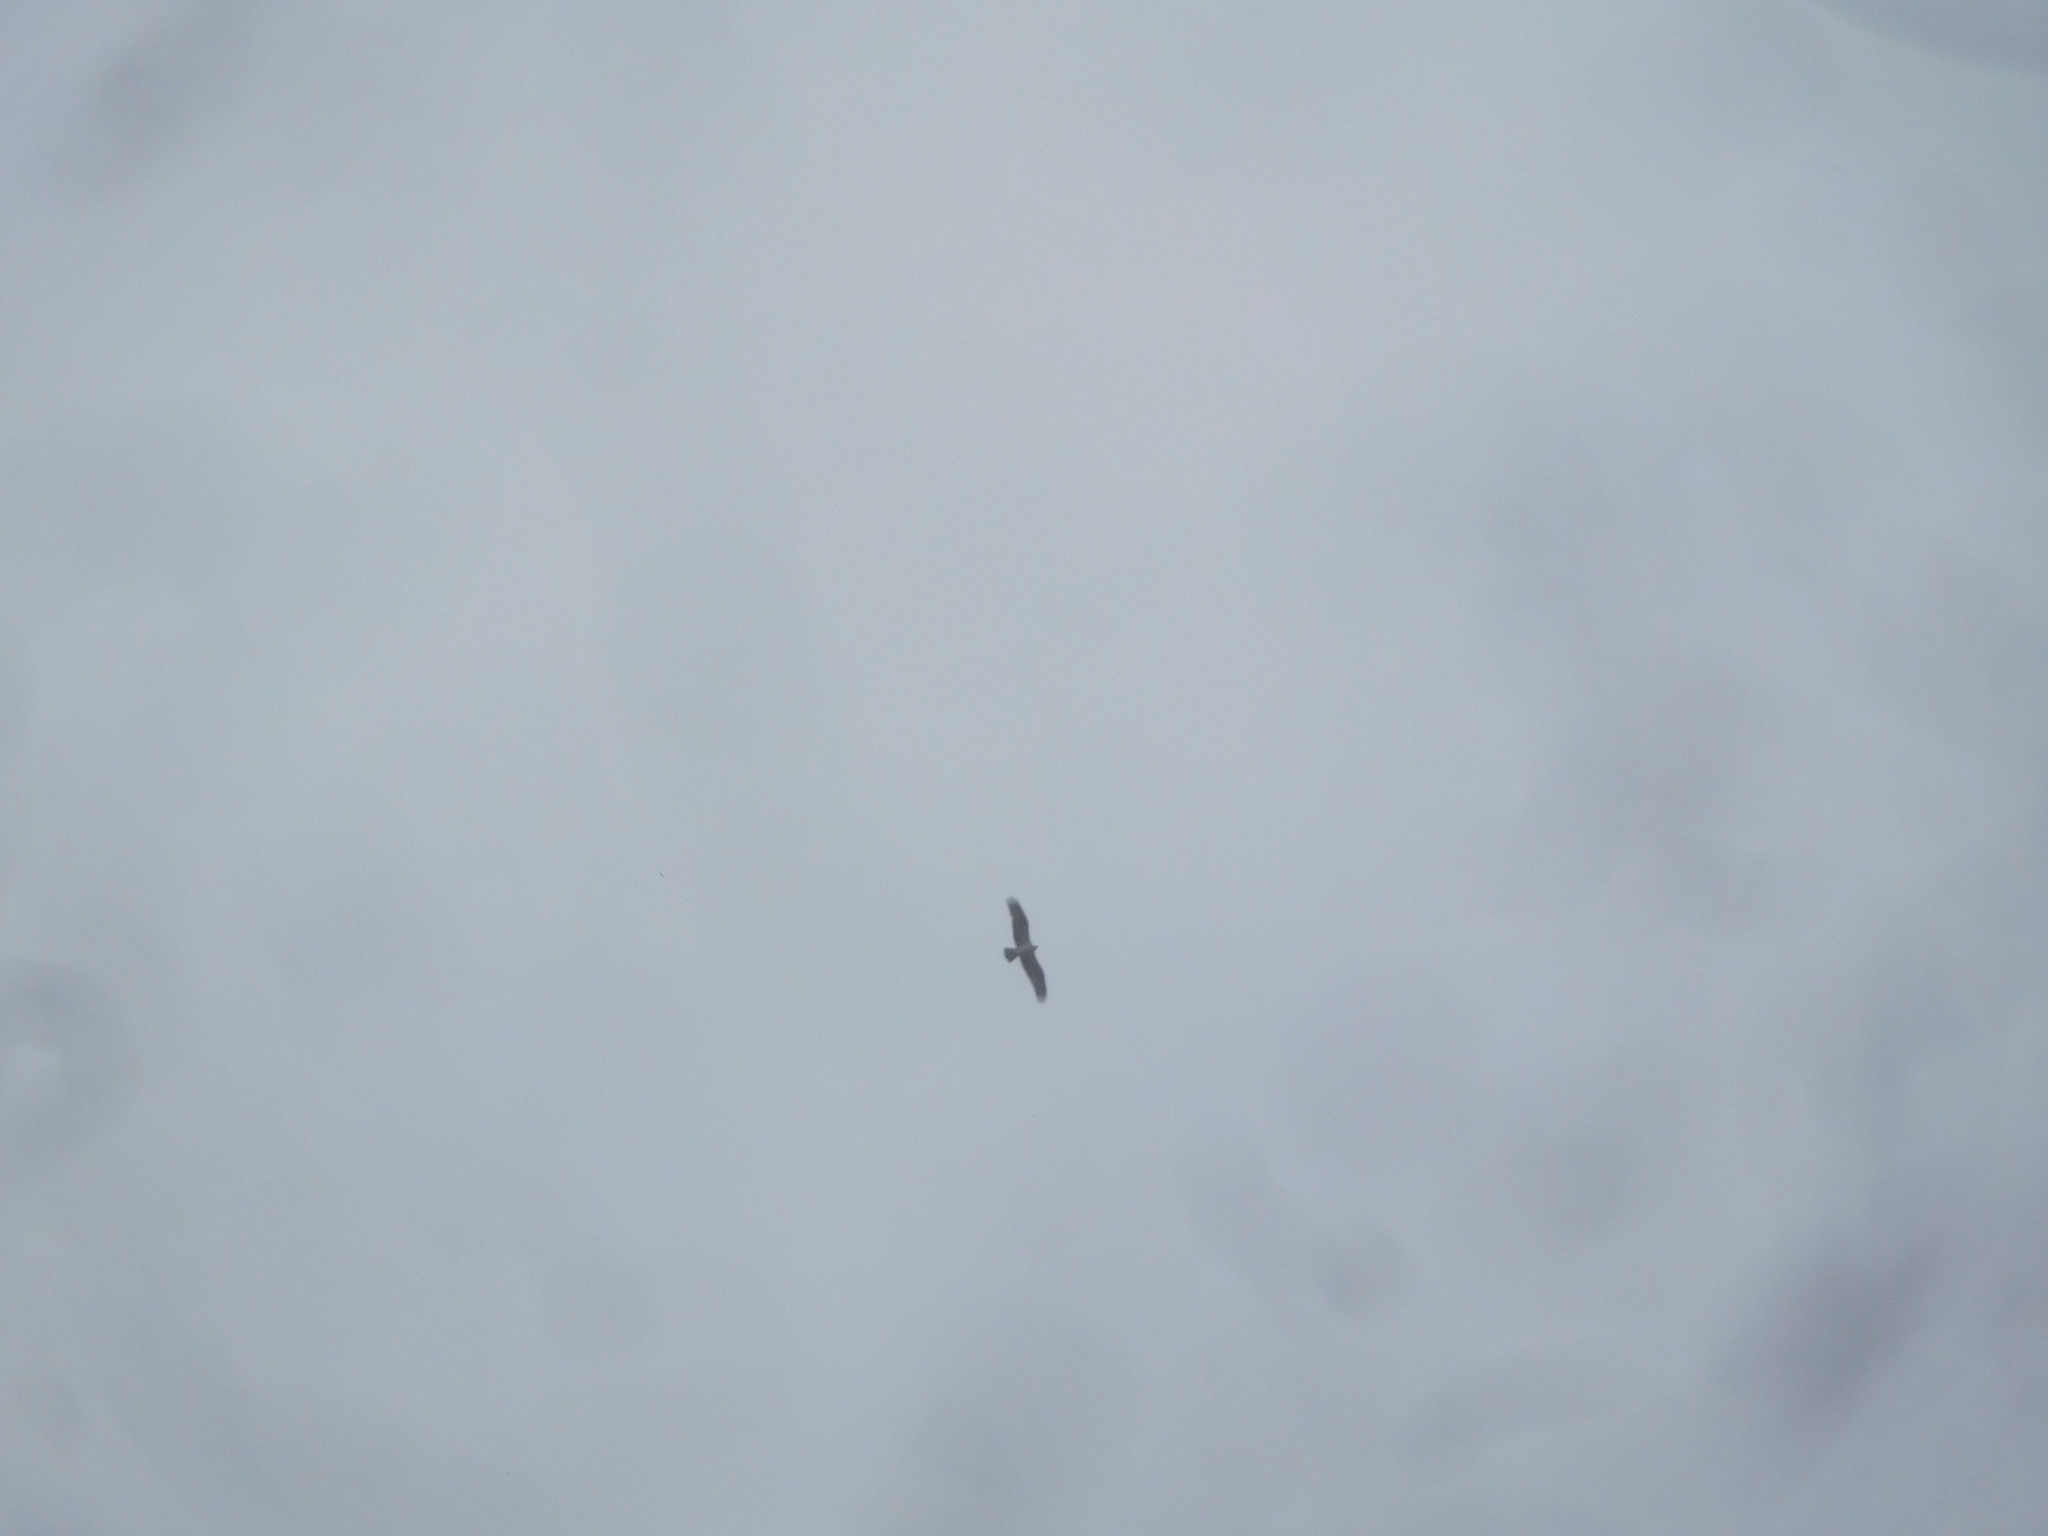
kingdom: Animalia
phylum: Chordata
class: Aves
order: Accipitriformes
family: Pandionidae
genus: Pandion
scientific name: Pandion haliaetus
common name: Osprey
